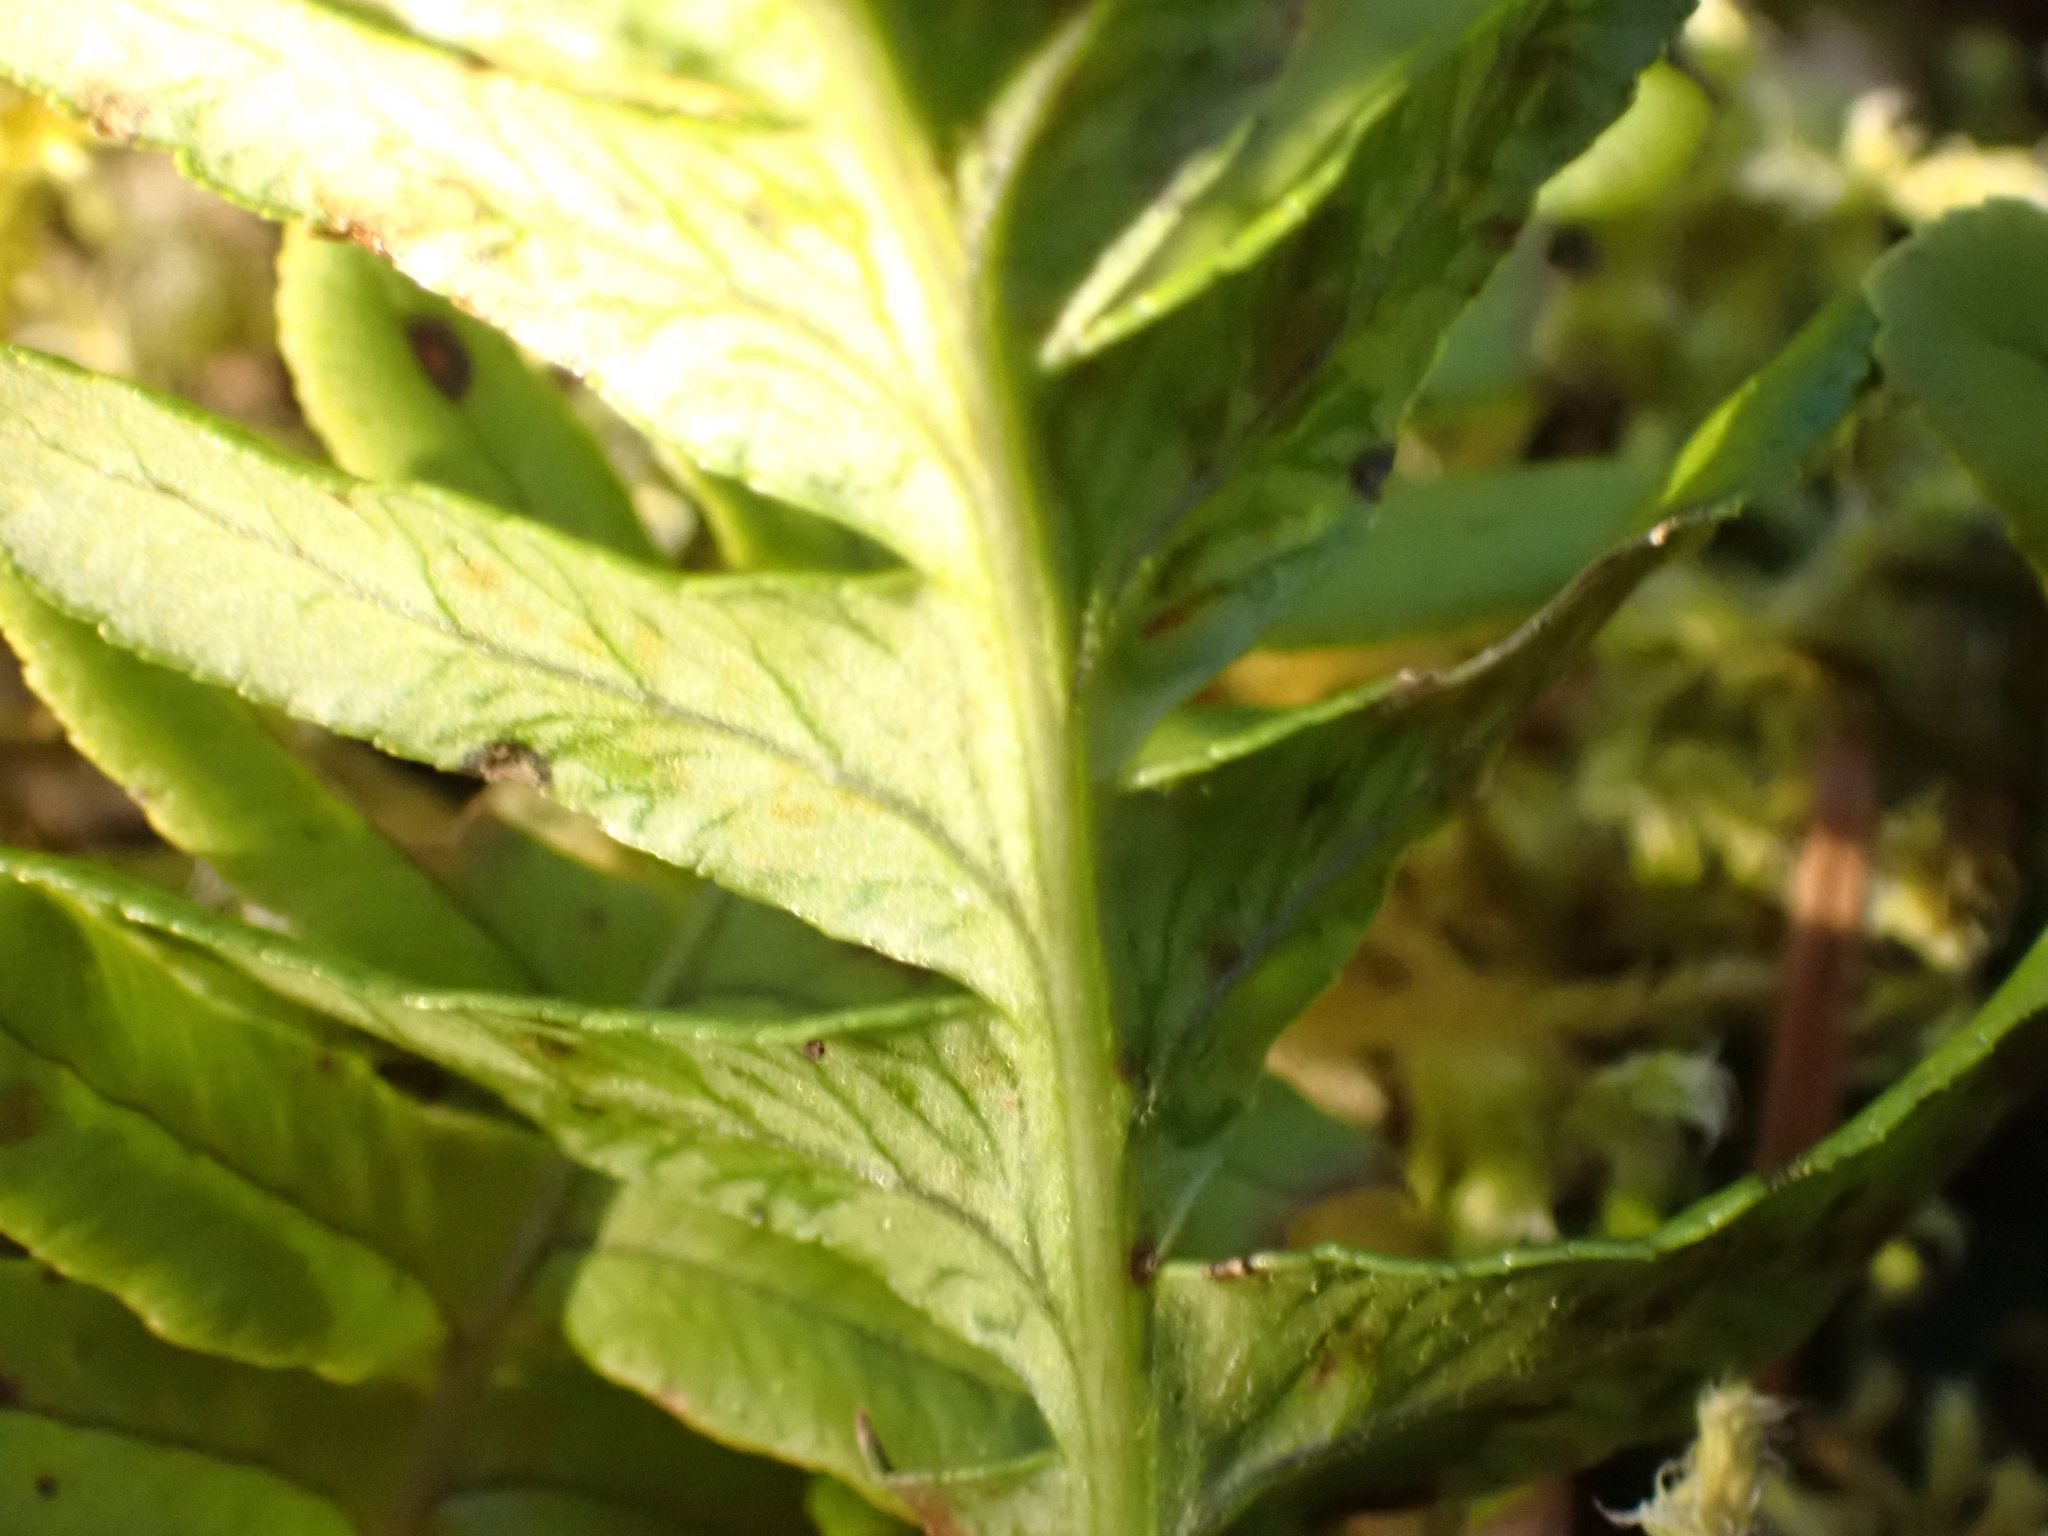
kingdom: Plantae
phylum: Tracheophyta
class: Polypodiopsida
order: Polypodiales
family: Polypodiaceae
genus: Polypodium
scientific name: Polypodium glycyrrhiza
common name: Licorice fern
